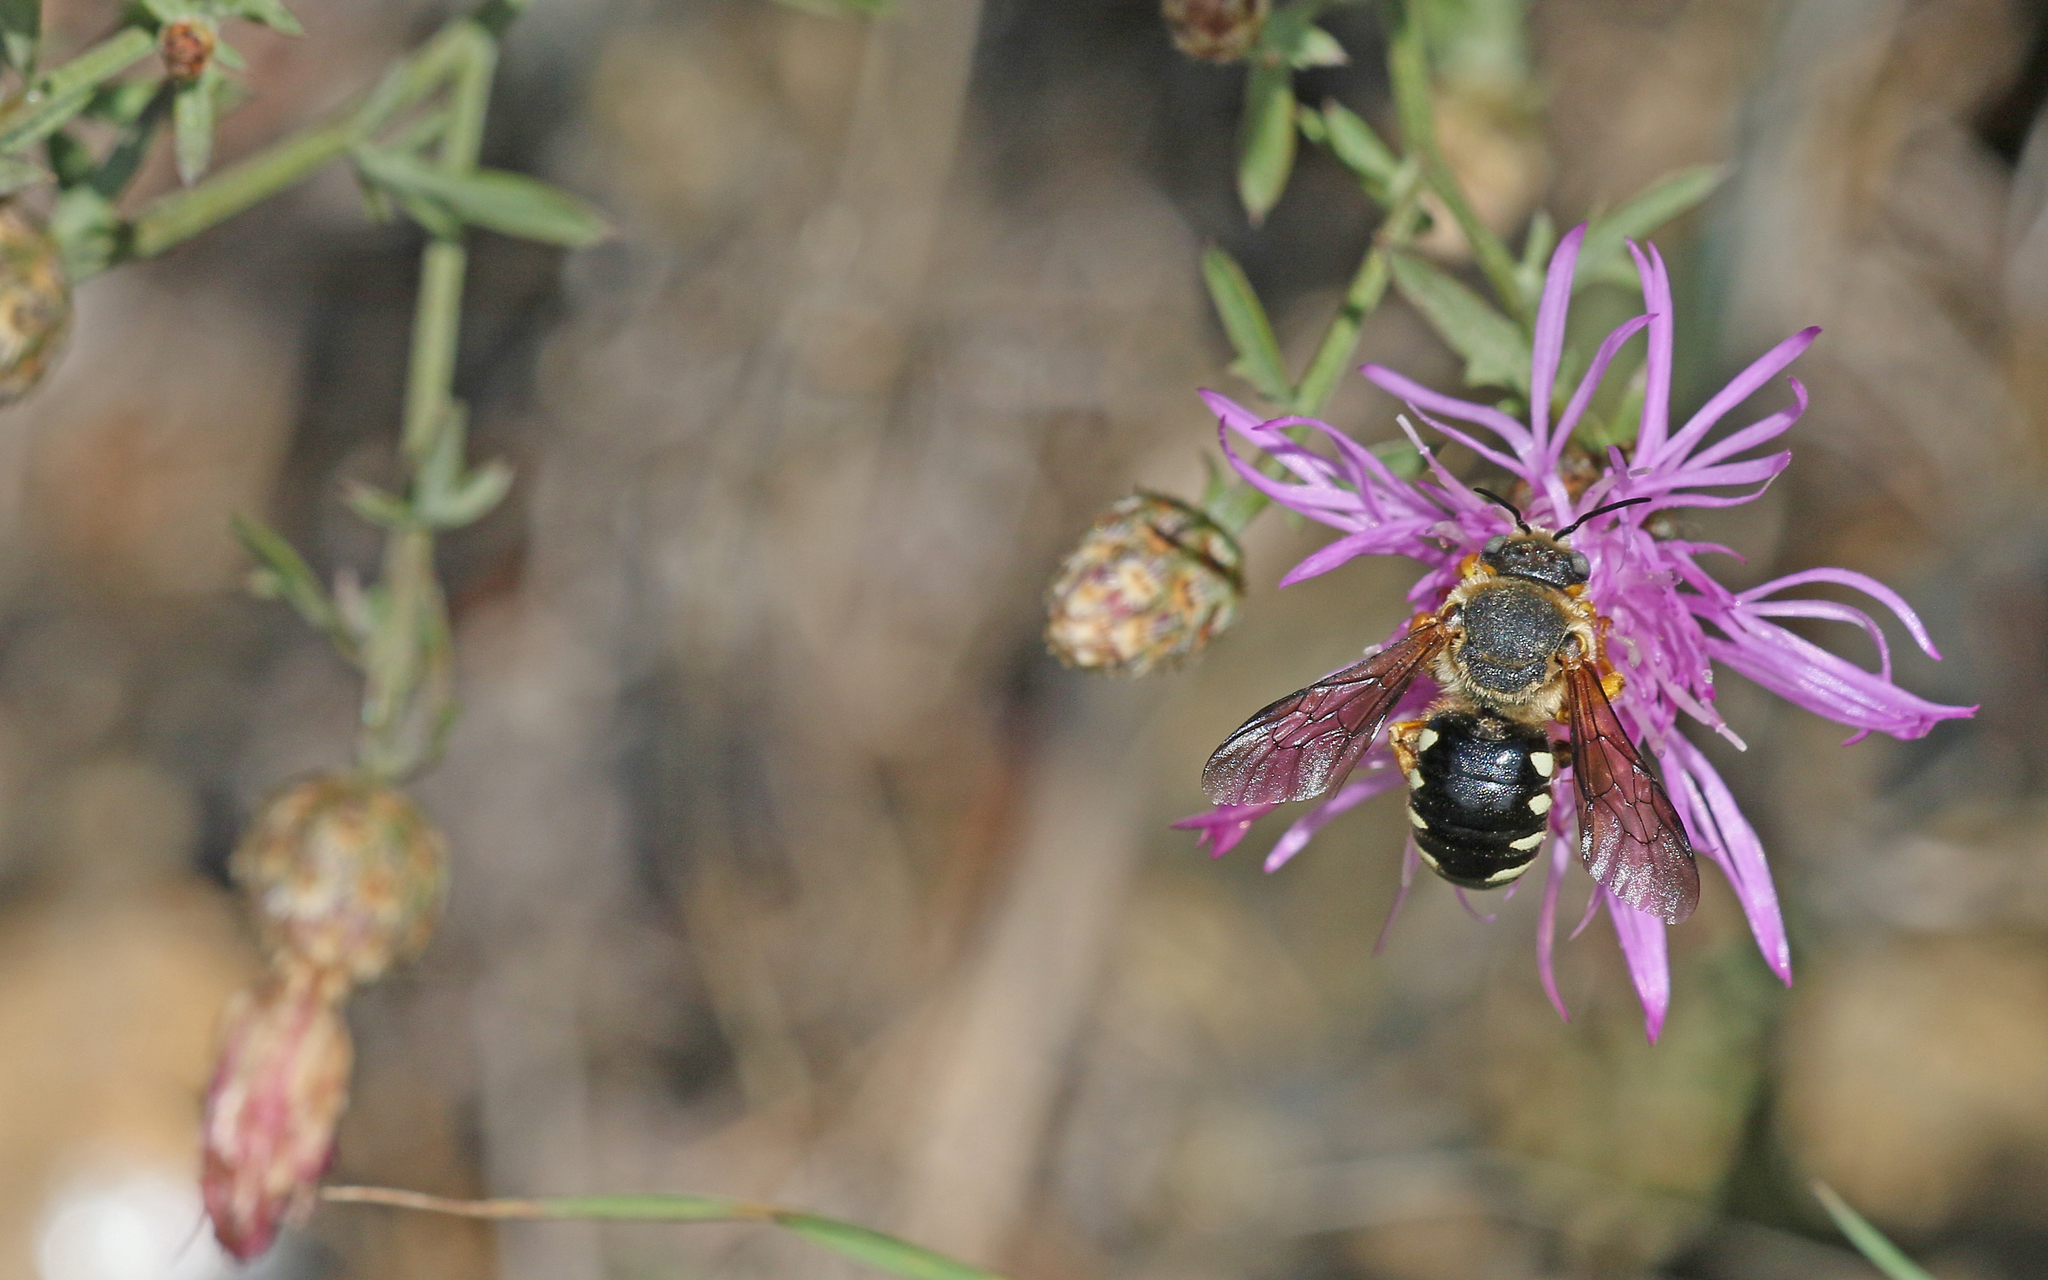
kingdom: Animalia
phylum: Arthropoda
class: Insecta
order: Hymenoptera
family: Megachilidae
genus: Icteranthidium
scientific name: Icteranthidium laterale
